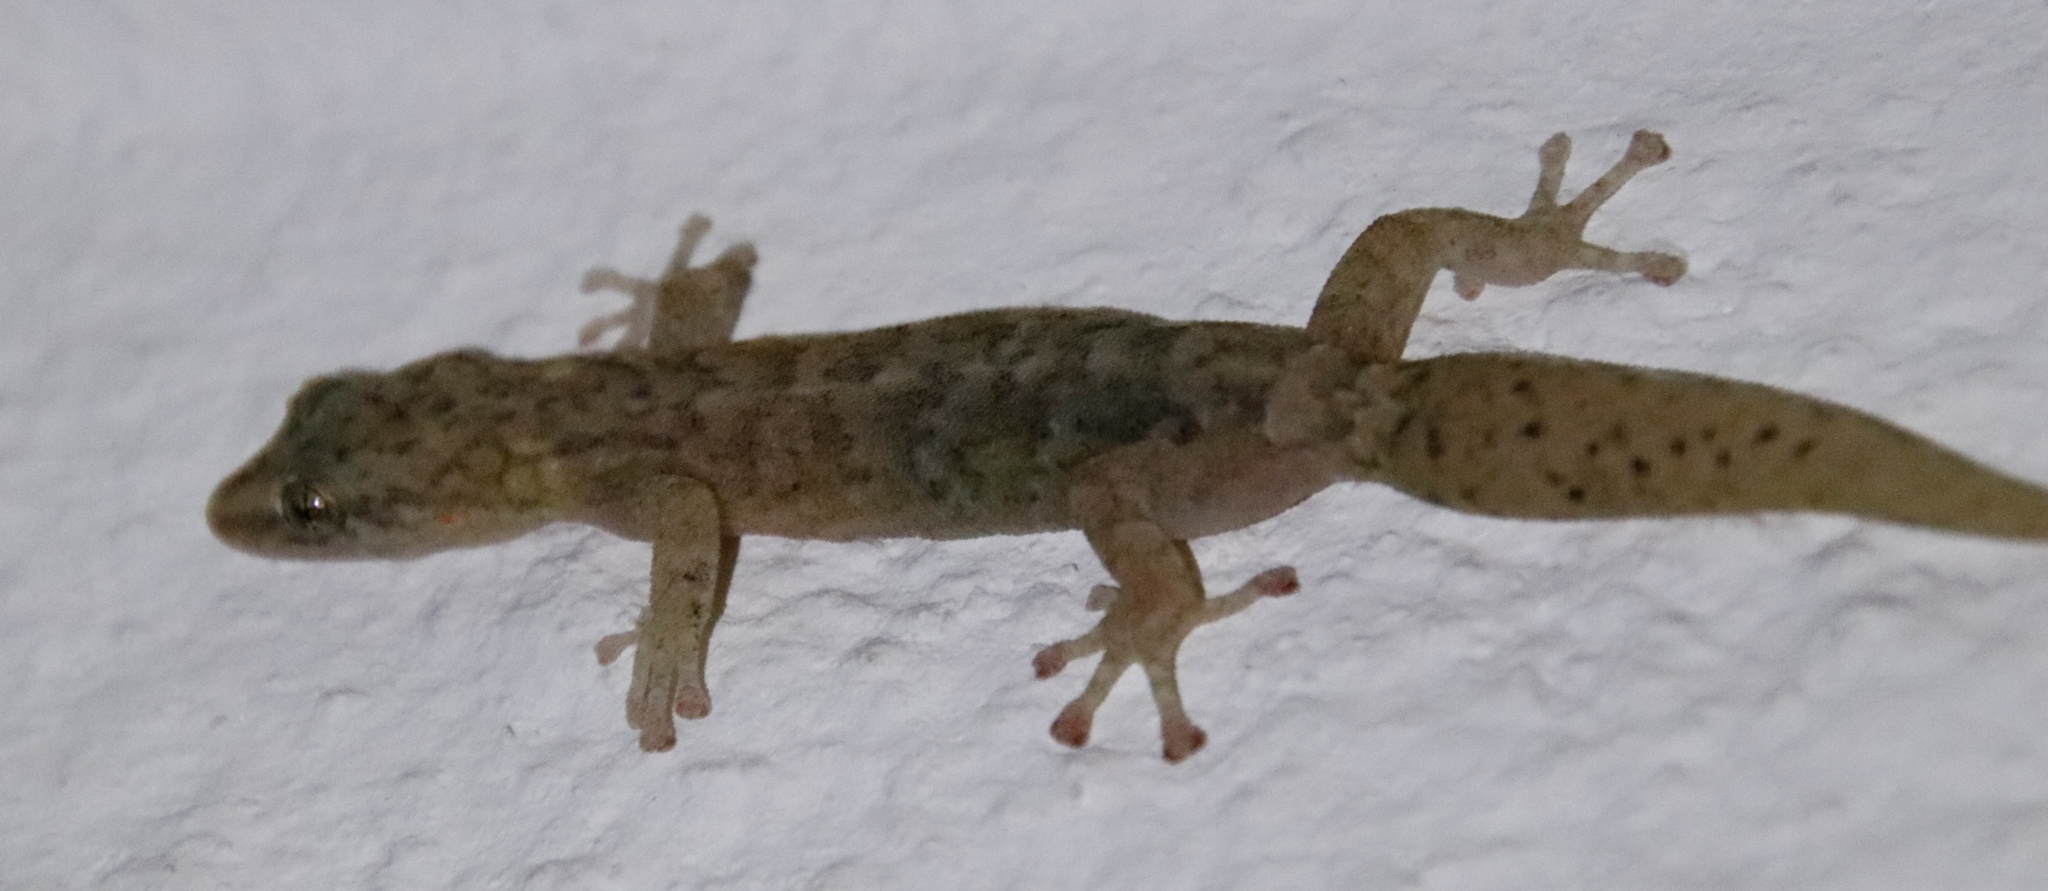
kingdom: Animalia
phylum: Chordata
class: Squamata
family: Gekkonidae
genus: Afrogecko
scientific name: Afrogecko porphyreus
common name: Marbled leaf-toed gecko
